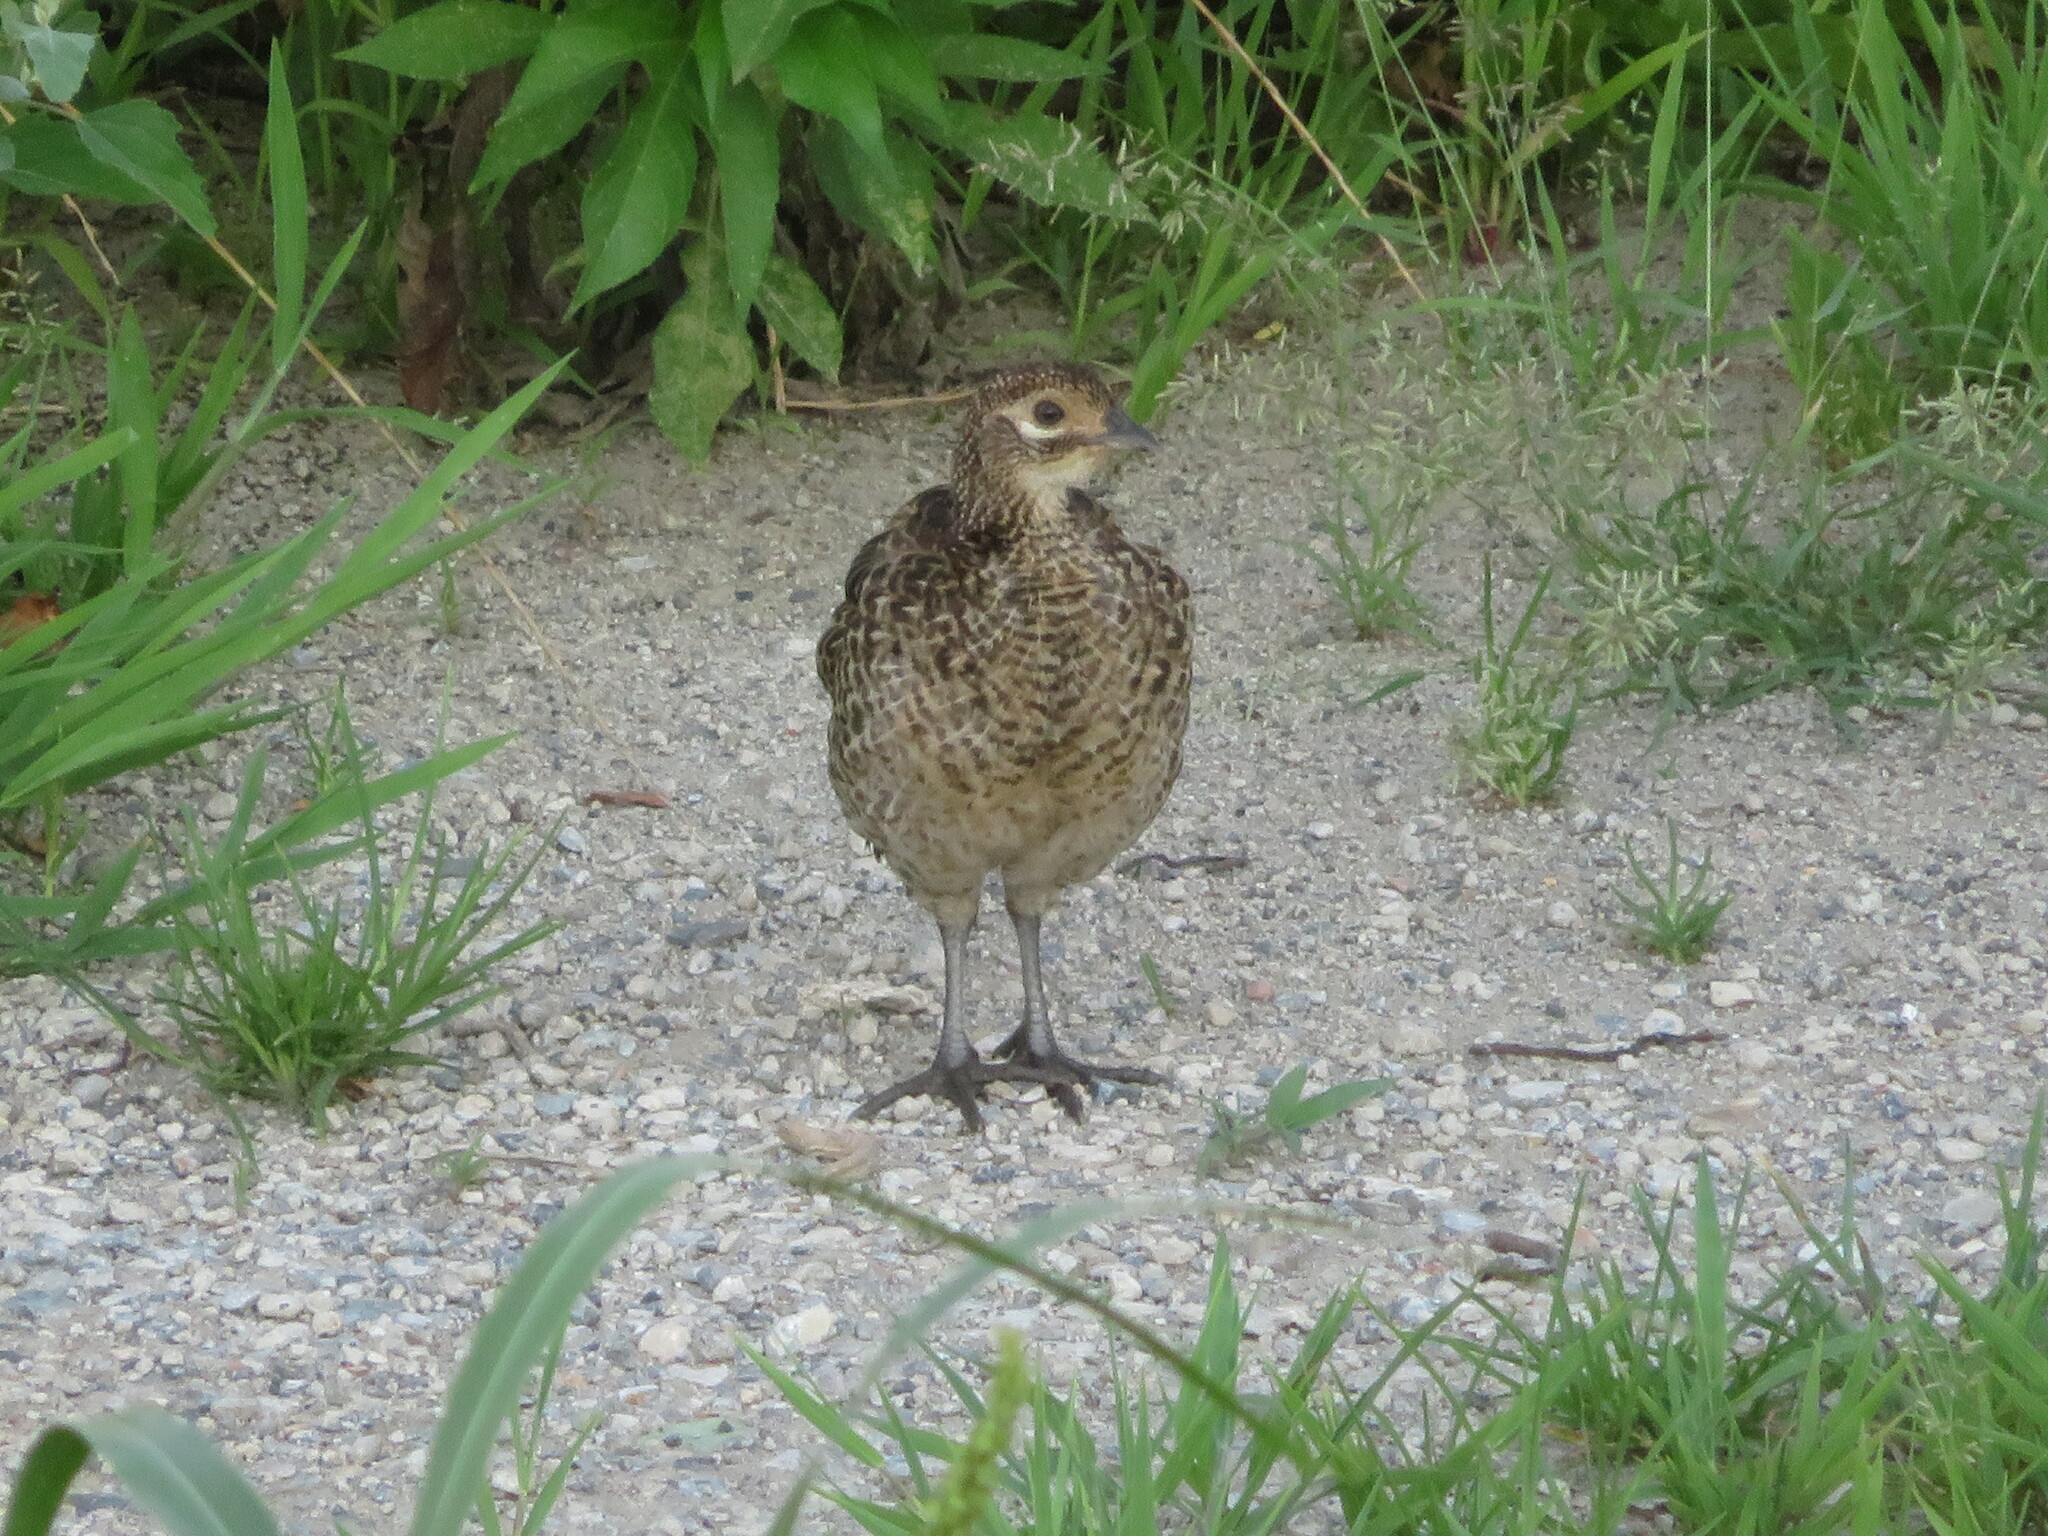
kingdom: Animalia
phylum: Chordata
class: Aves
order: Galliformes
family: Phasianidae
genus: Phasianus
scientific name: Phasianus versicolor
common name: Green pheasant
